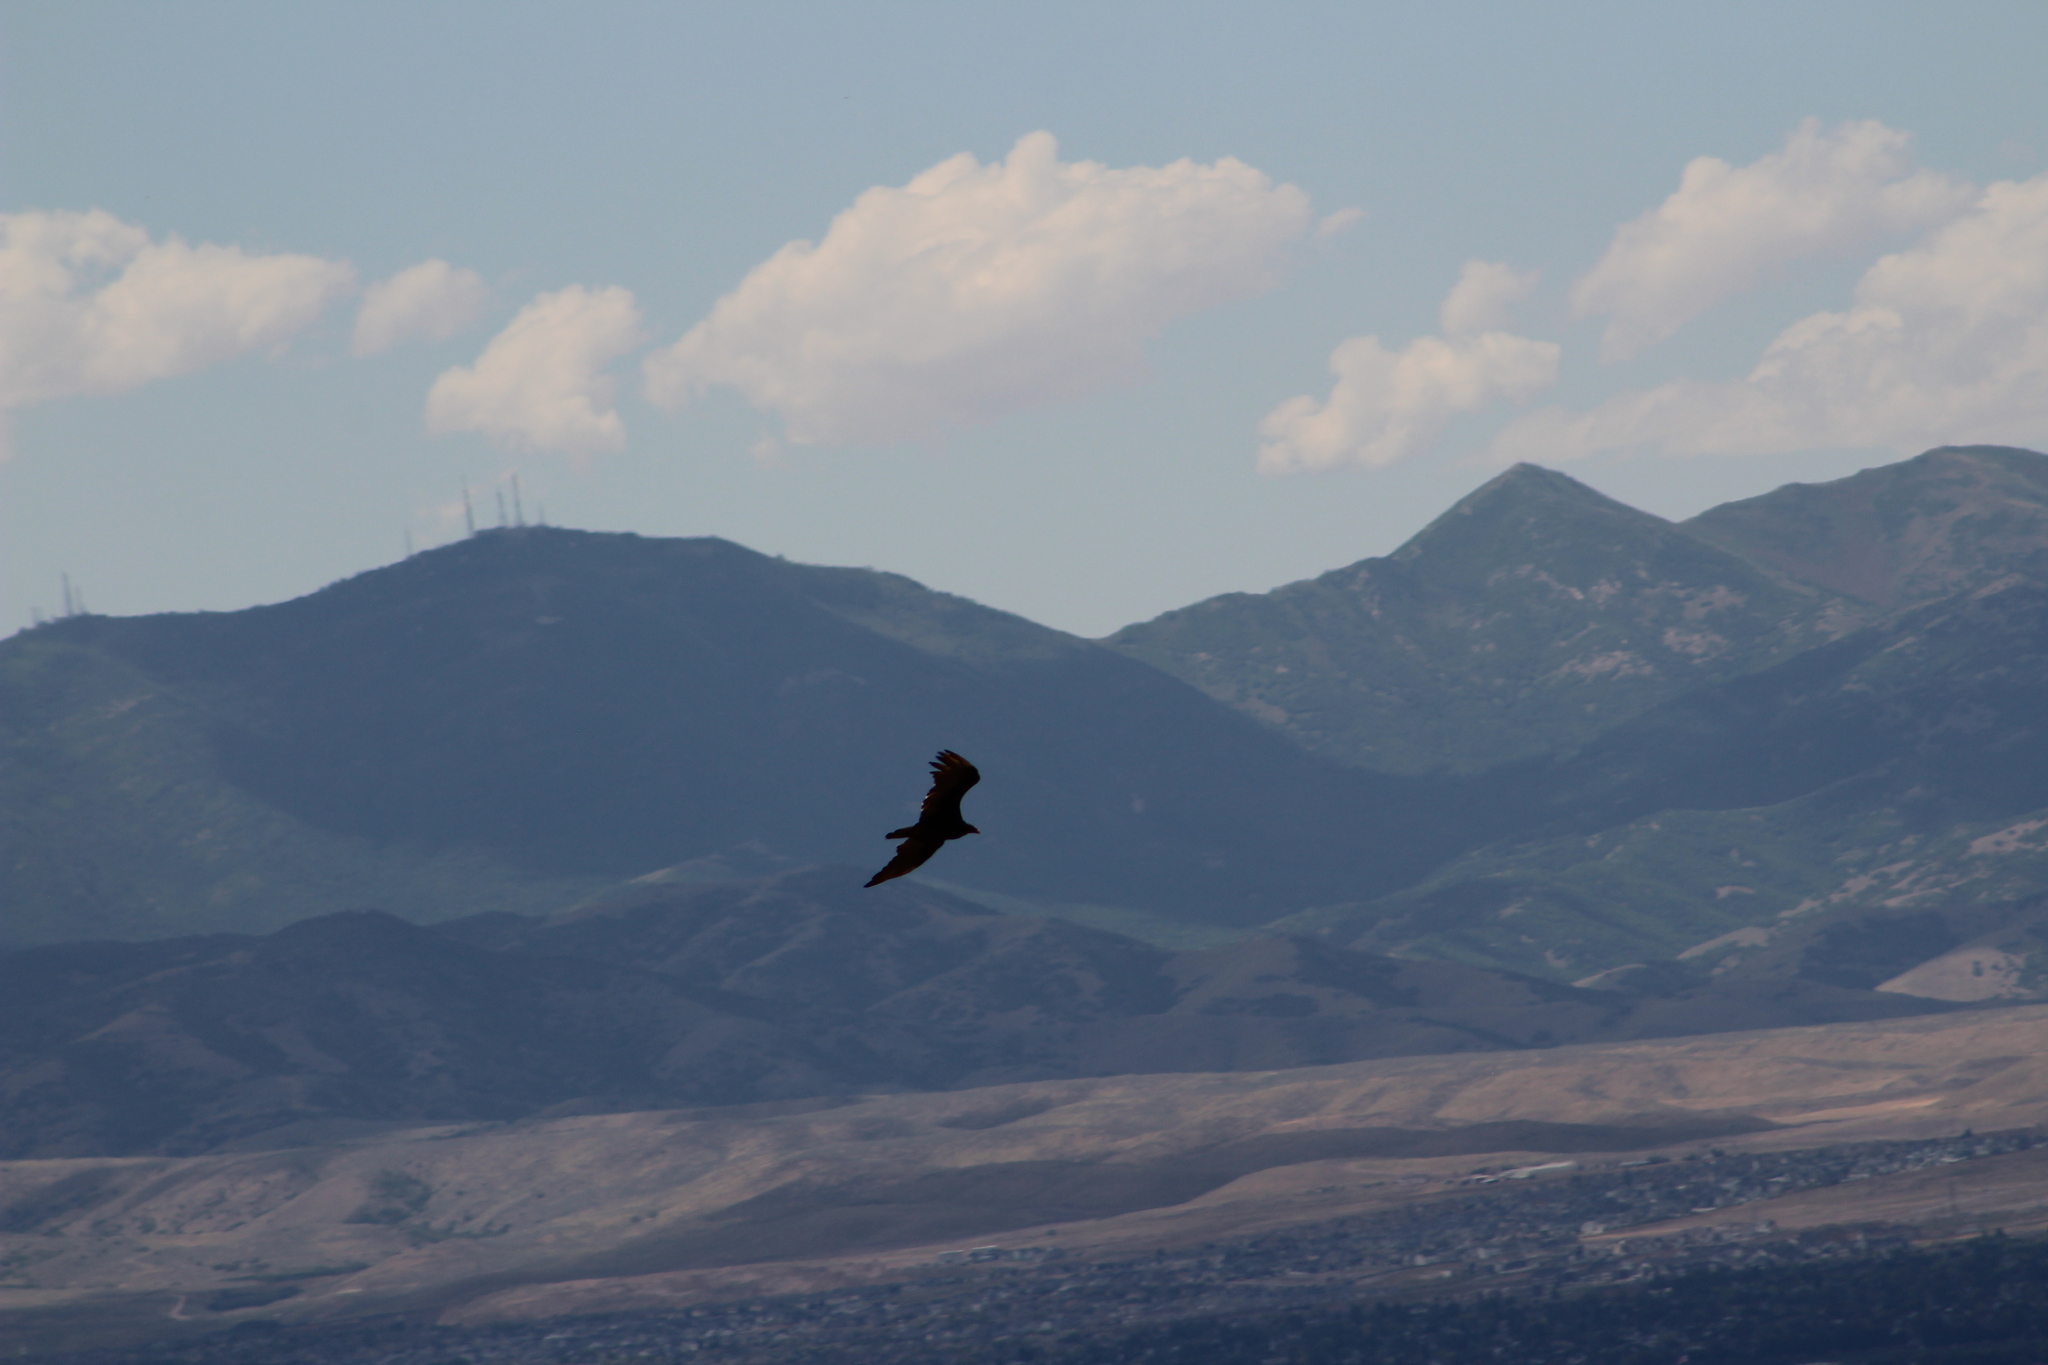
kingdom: Animalia
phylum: Chordata
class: Aves
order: Accipitriformes
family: Cathartidae
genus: Cathartes
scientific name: Cathartes aura
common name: Turkey vulture
